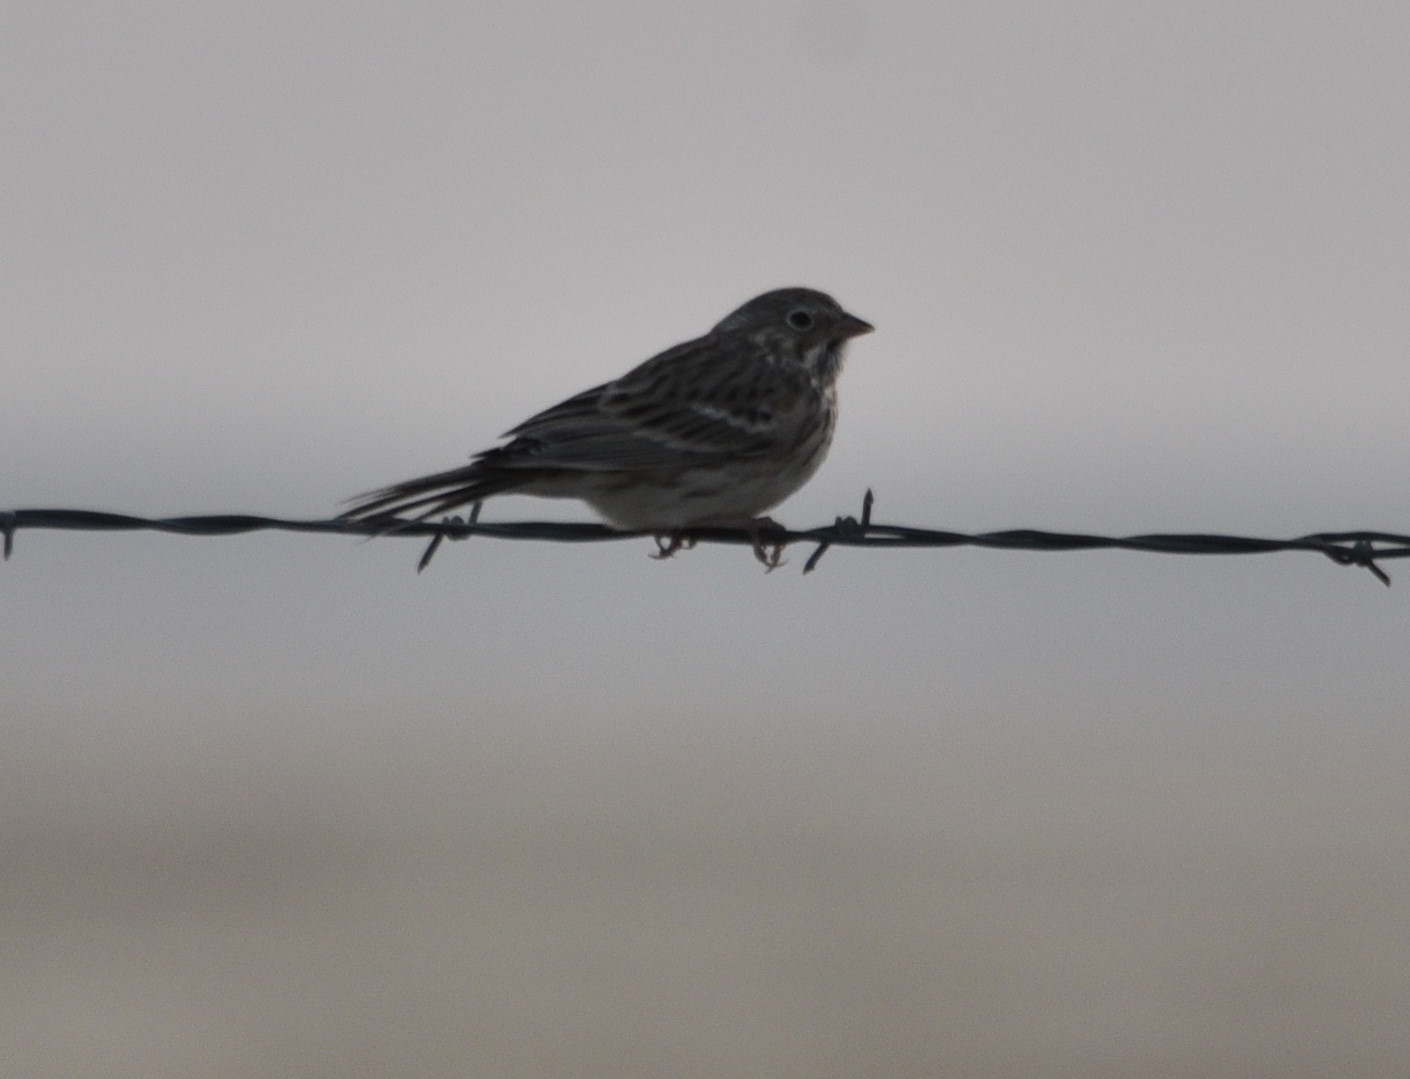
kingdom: Animalia
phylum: Chordata
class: Aves
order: Passeriformes
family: Passerellidae
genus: Pooecetes
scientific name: Pooecetes gramineus
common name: Vesper sparrow
